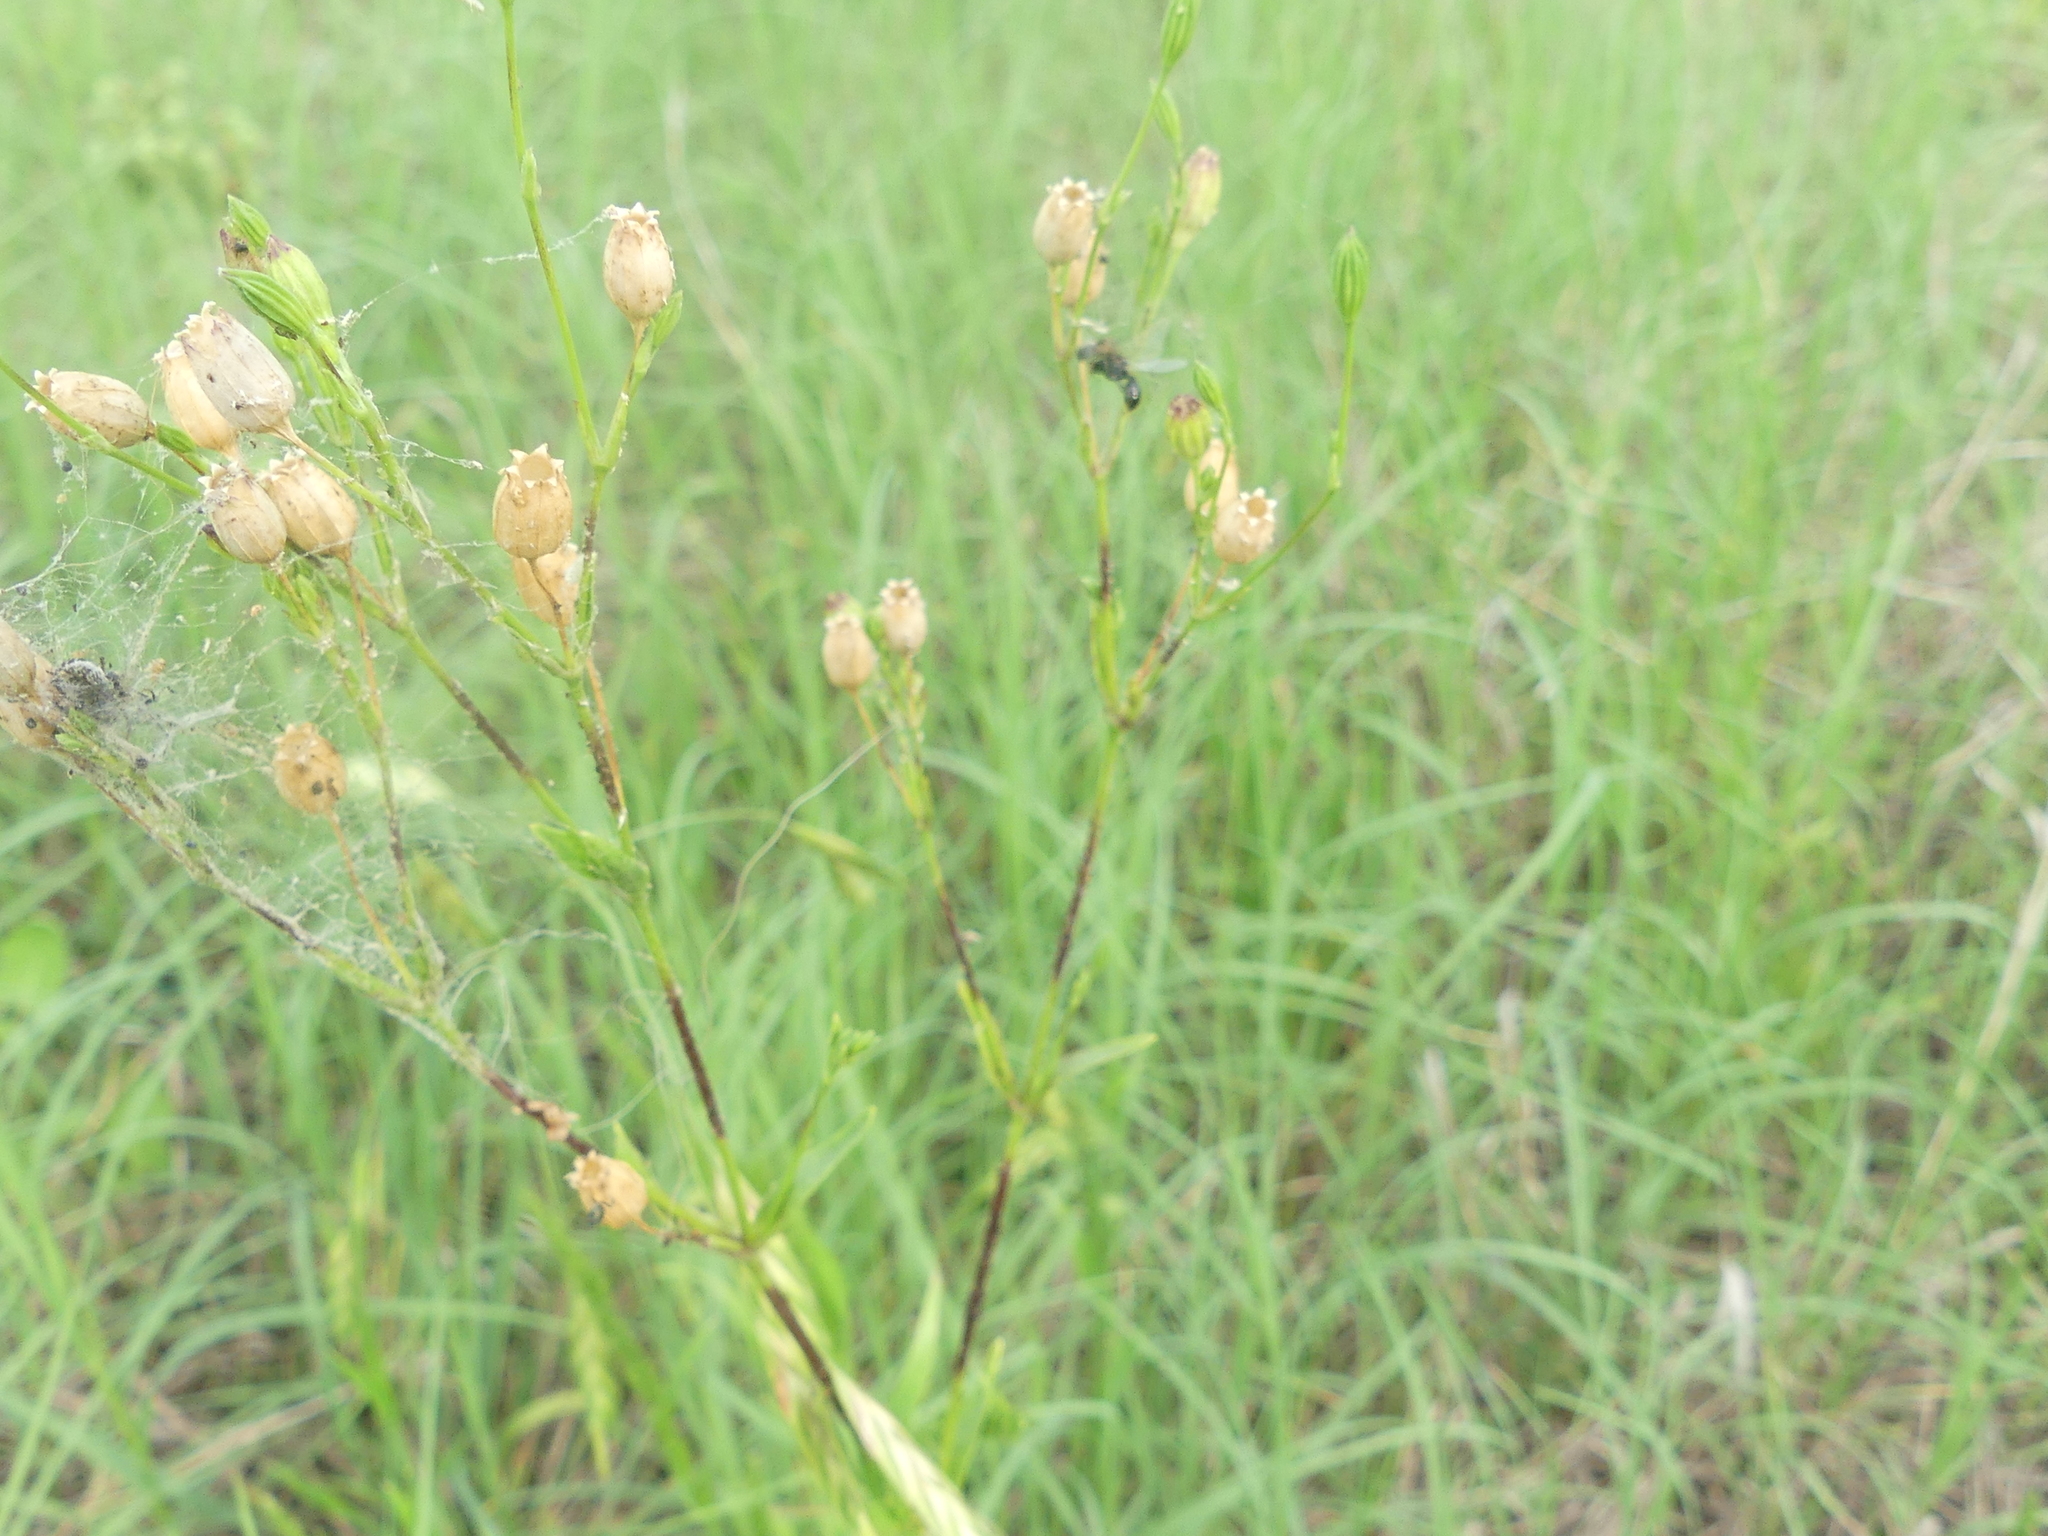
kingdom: Plantae
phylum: Tracheophyta
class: Magnoliopsida
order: Caryophyllales
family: Caryophyllaceae
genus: Silene
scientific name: Silene antirrhina
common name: Sleepy catchfly
